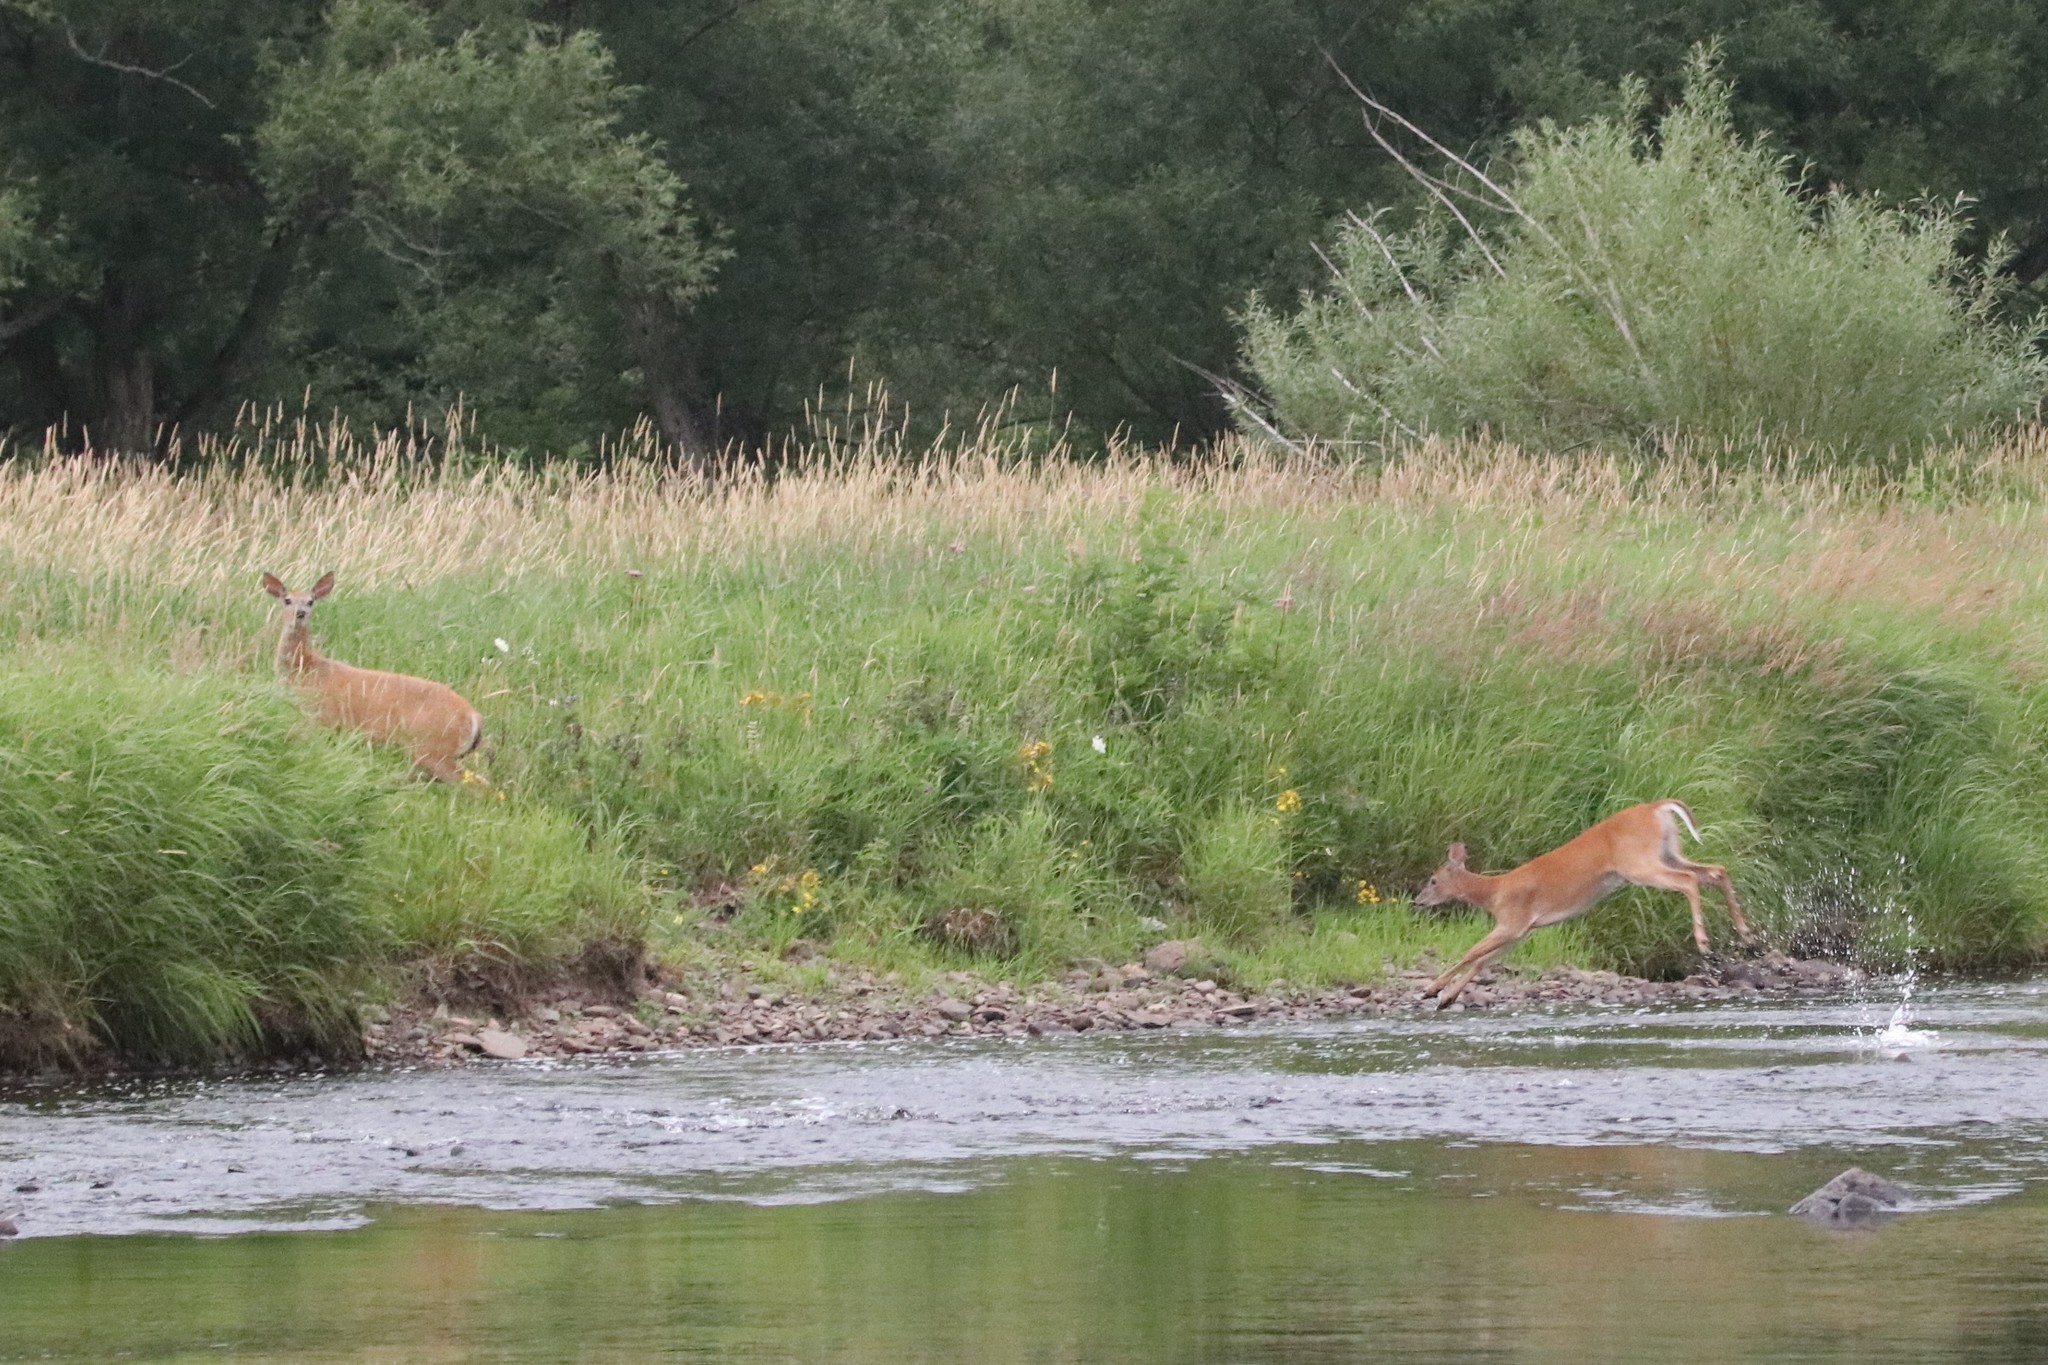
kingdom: Animalia
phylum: Chordata
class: Mammalia
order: Artiodactyla
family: Cervidae
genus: Odocoileus
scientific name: Odocoileus virginianus
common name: White-tailed deer
